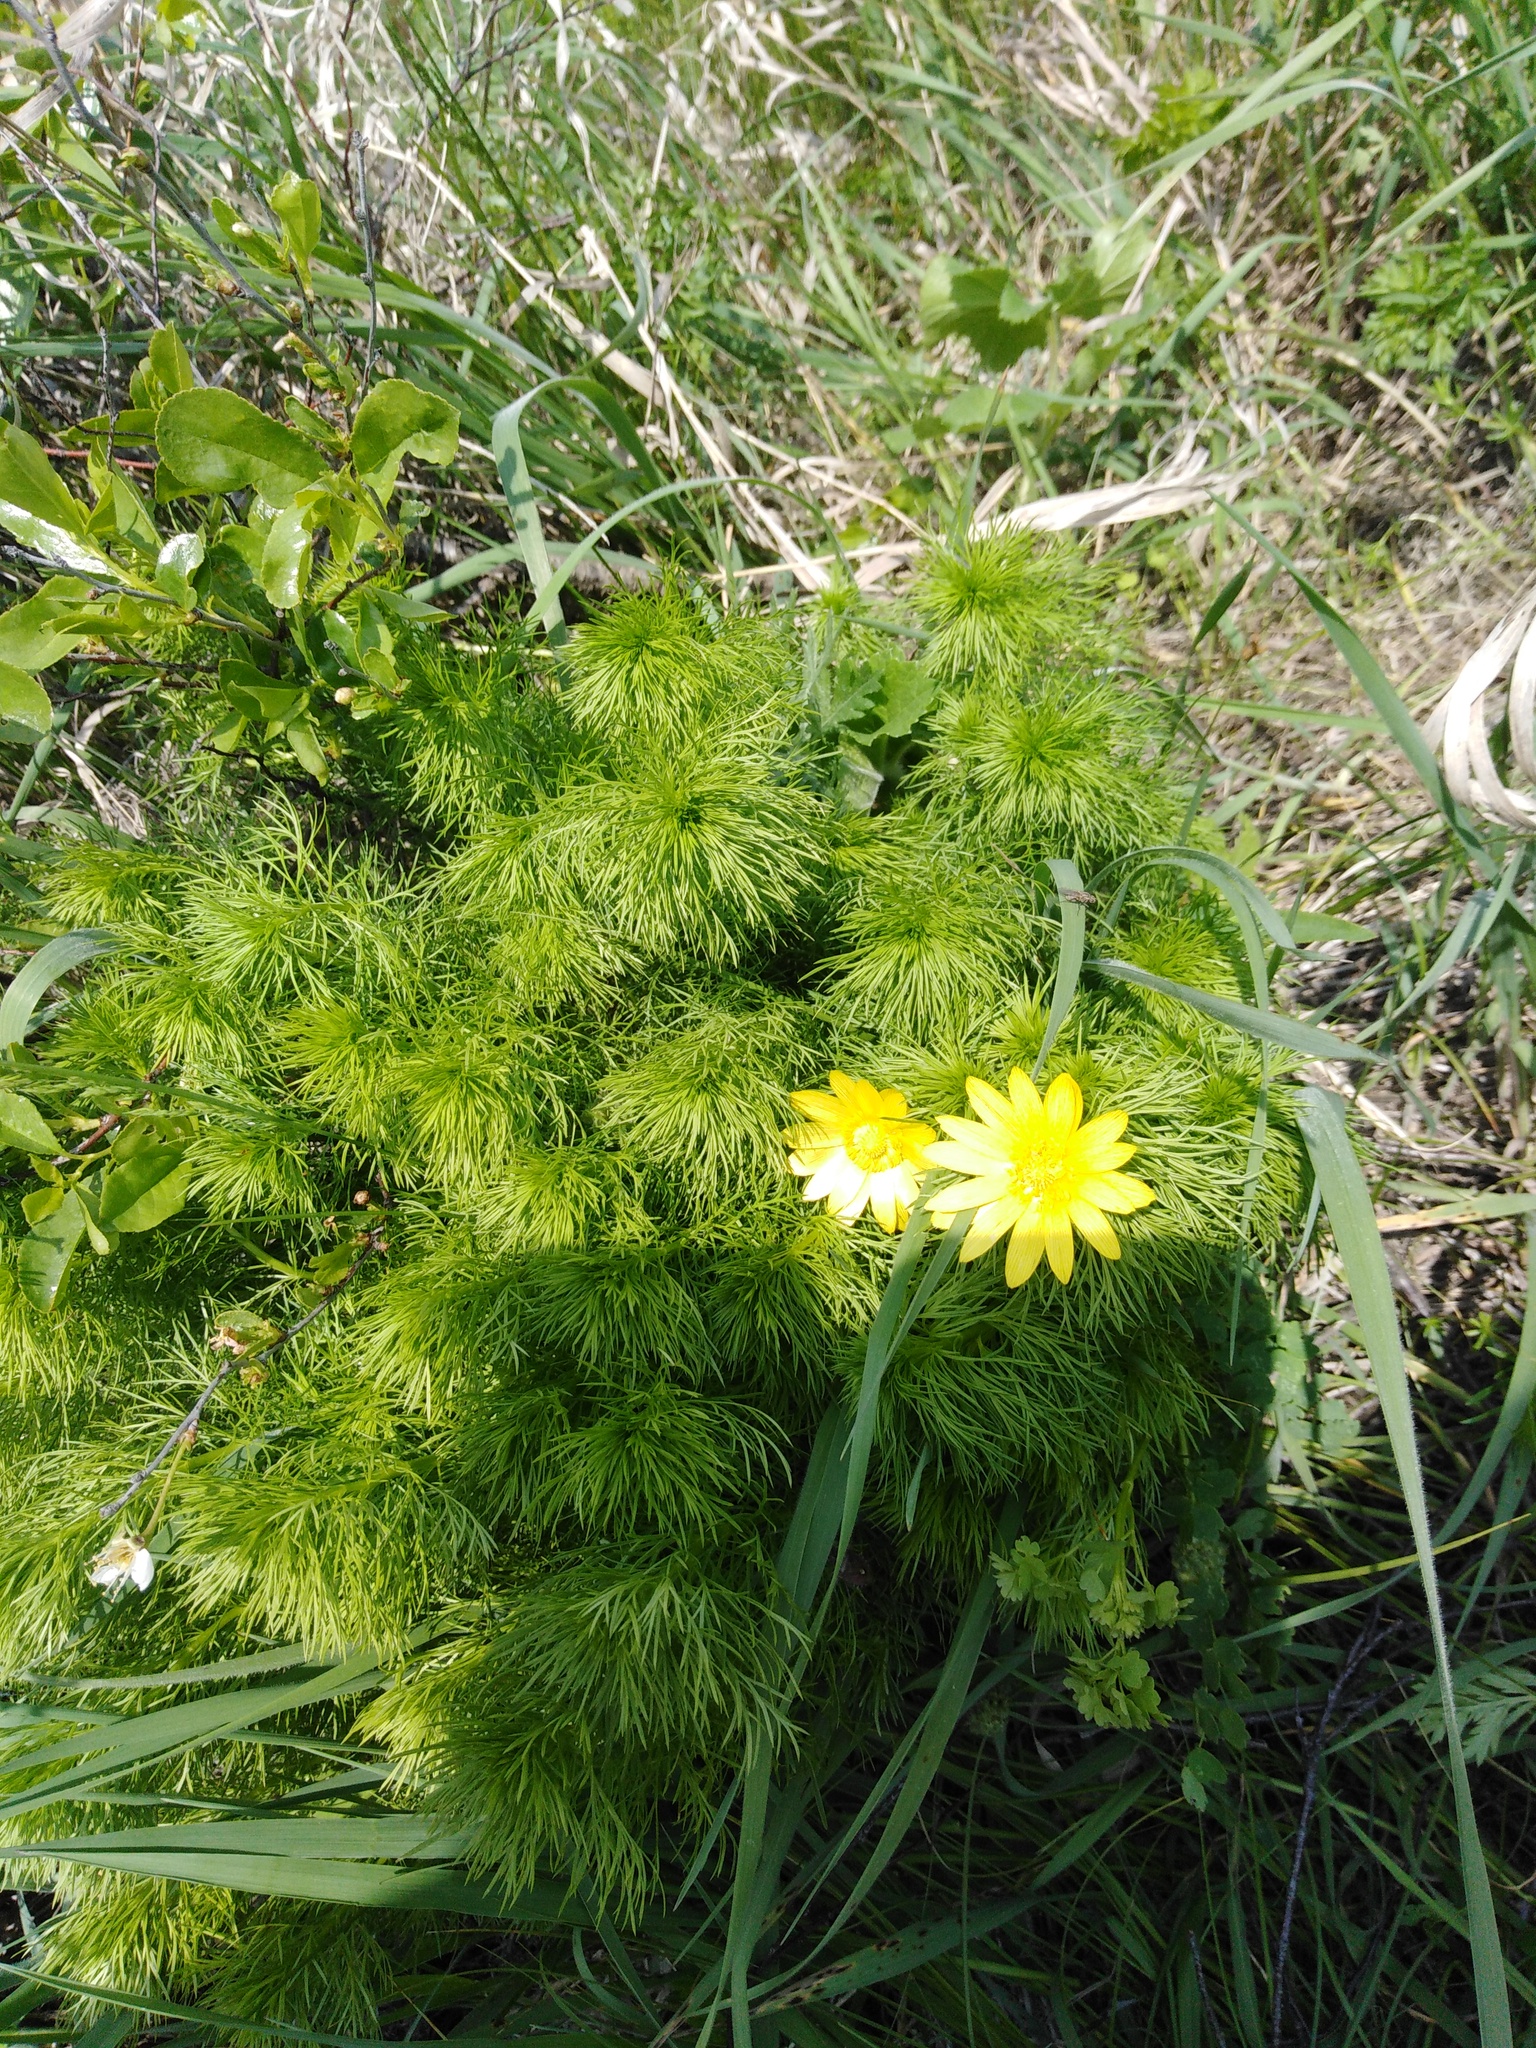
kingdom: Plantae
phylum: Tracheophyta
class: Magnoliopsida
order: Ranunculales
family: Ranunculaceae
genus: Adonis
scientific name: Adonis vernalis
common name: Yellow pheasants-eye
